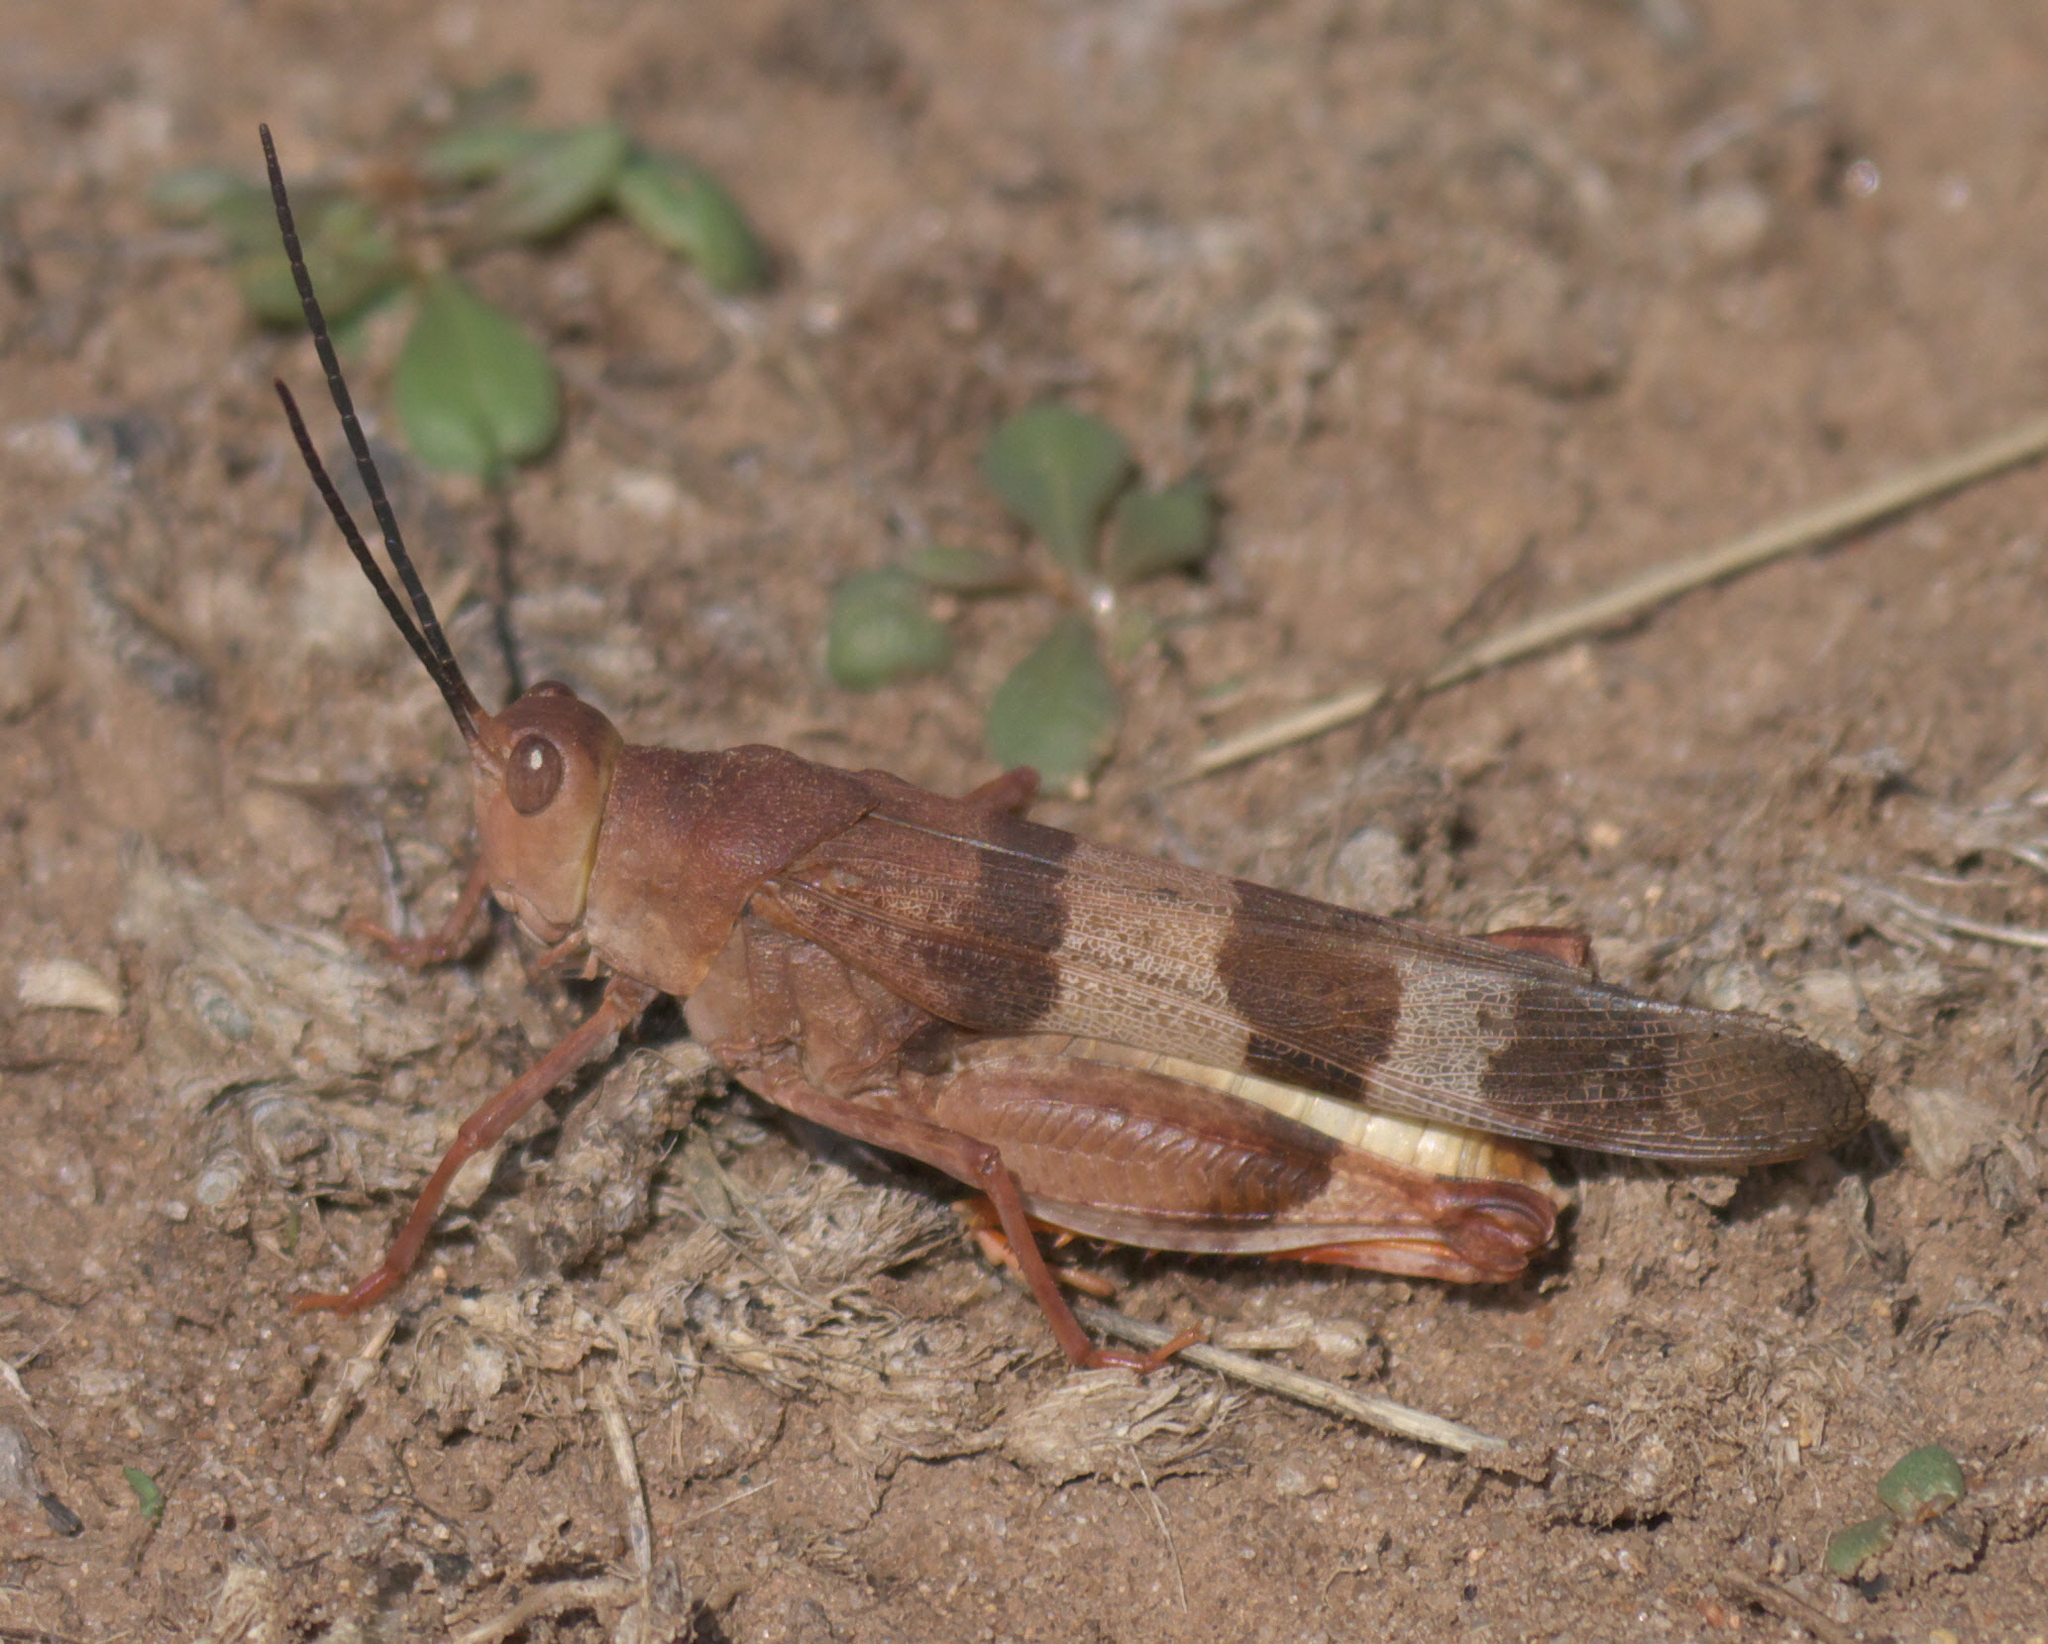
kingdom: Animalia
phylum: Arthropoda
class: Insecta
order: Orthoptera
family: Acrididae
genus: Hadrotettix
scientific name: Hadrotettix trifasciatus
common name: Threebanded grasshopper
